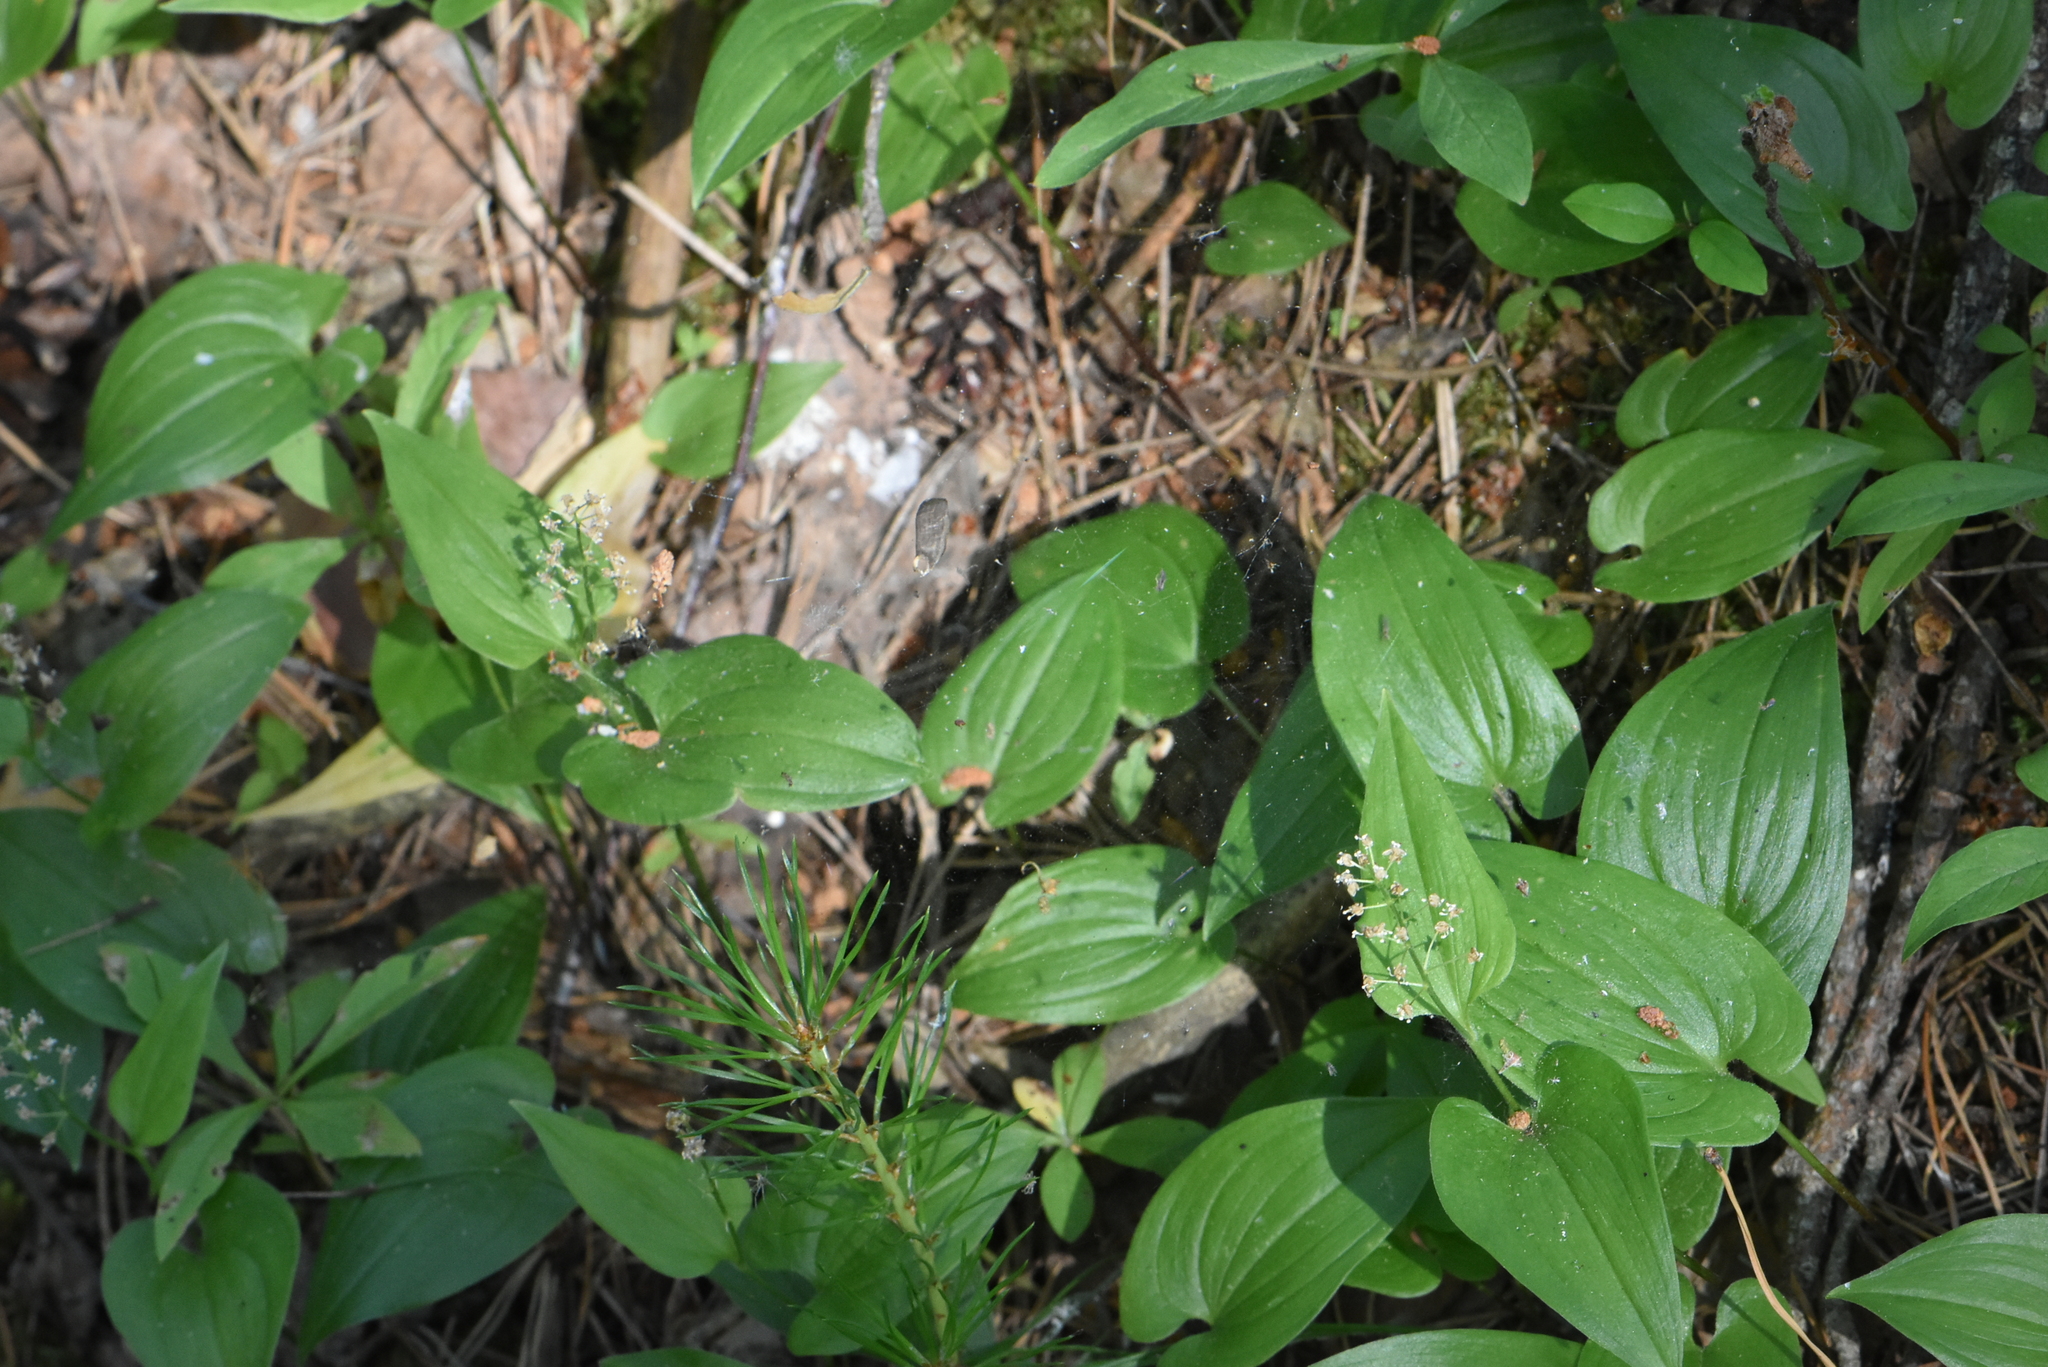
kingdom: Plantae
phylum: Tracheophyta
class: Liliopsida
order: Asparagales
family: Asparagaceae
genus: Maianthemum
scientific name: Maianthemum bifolium
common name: May lily
